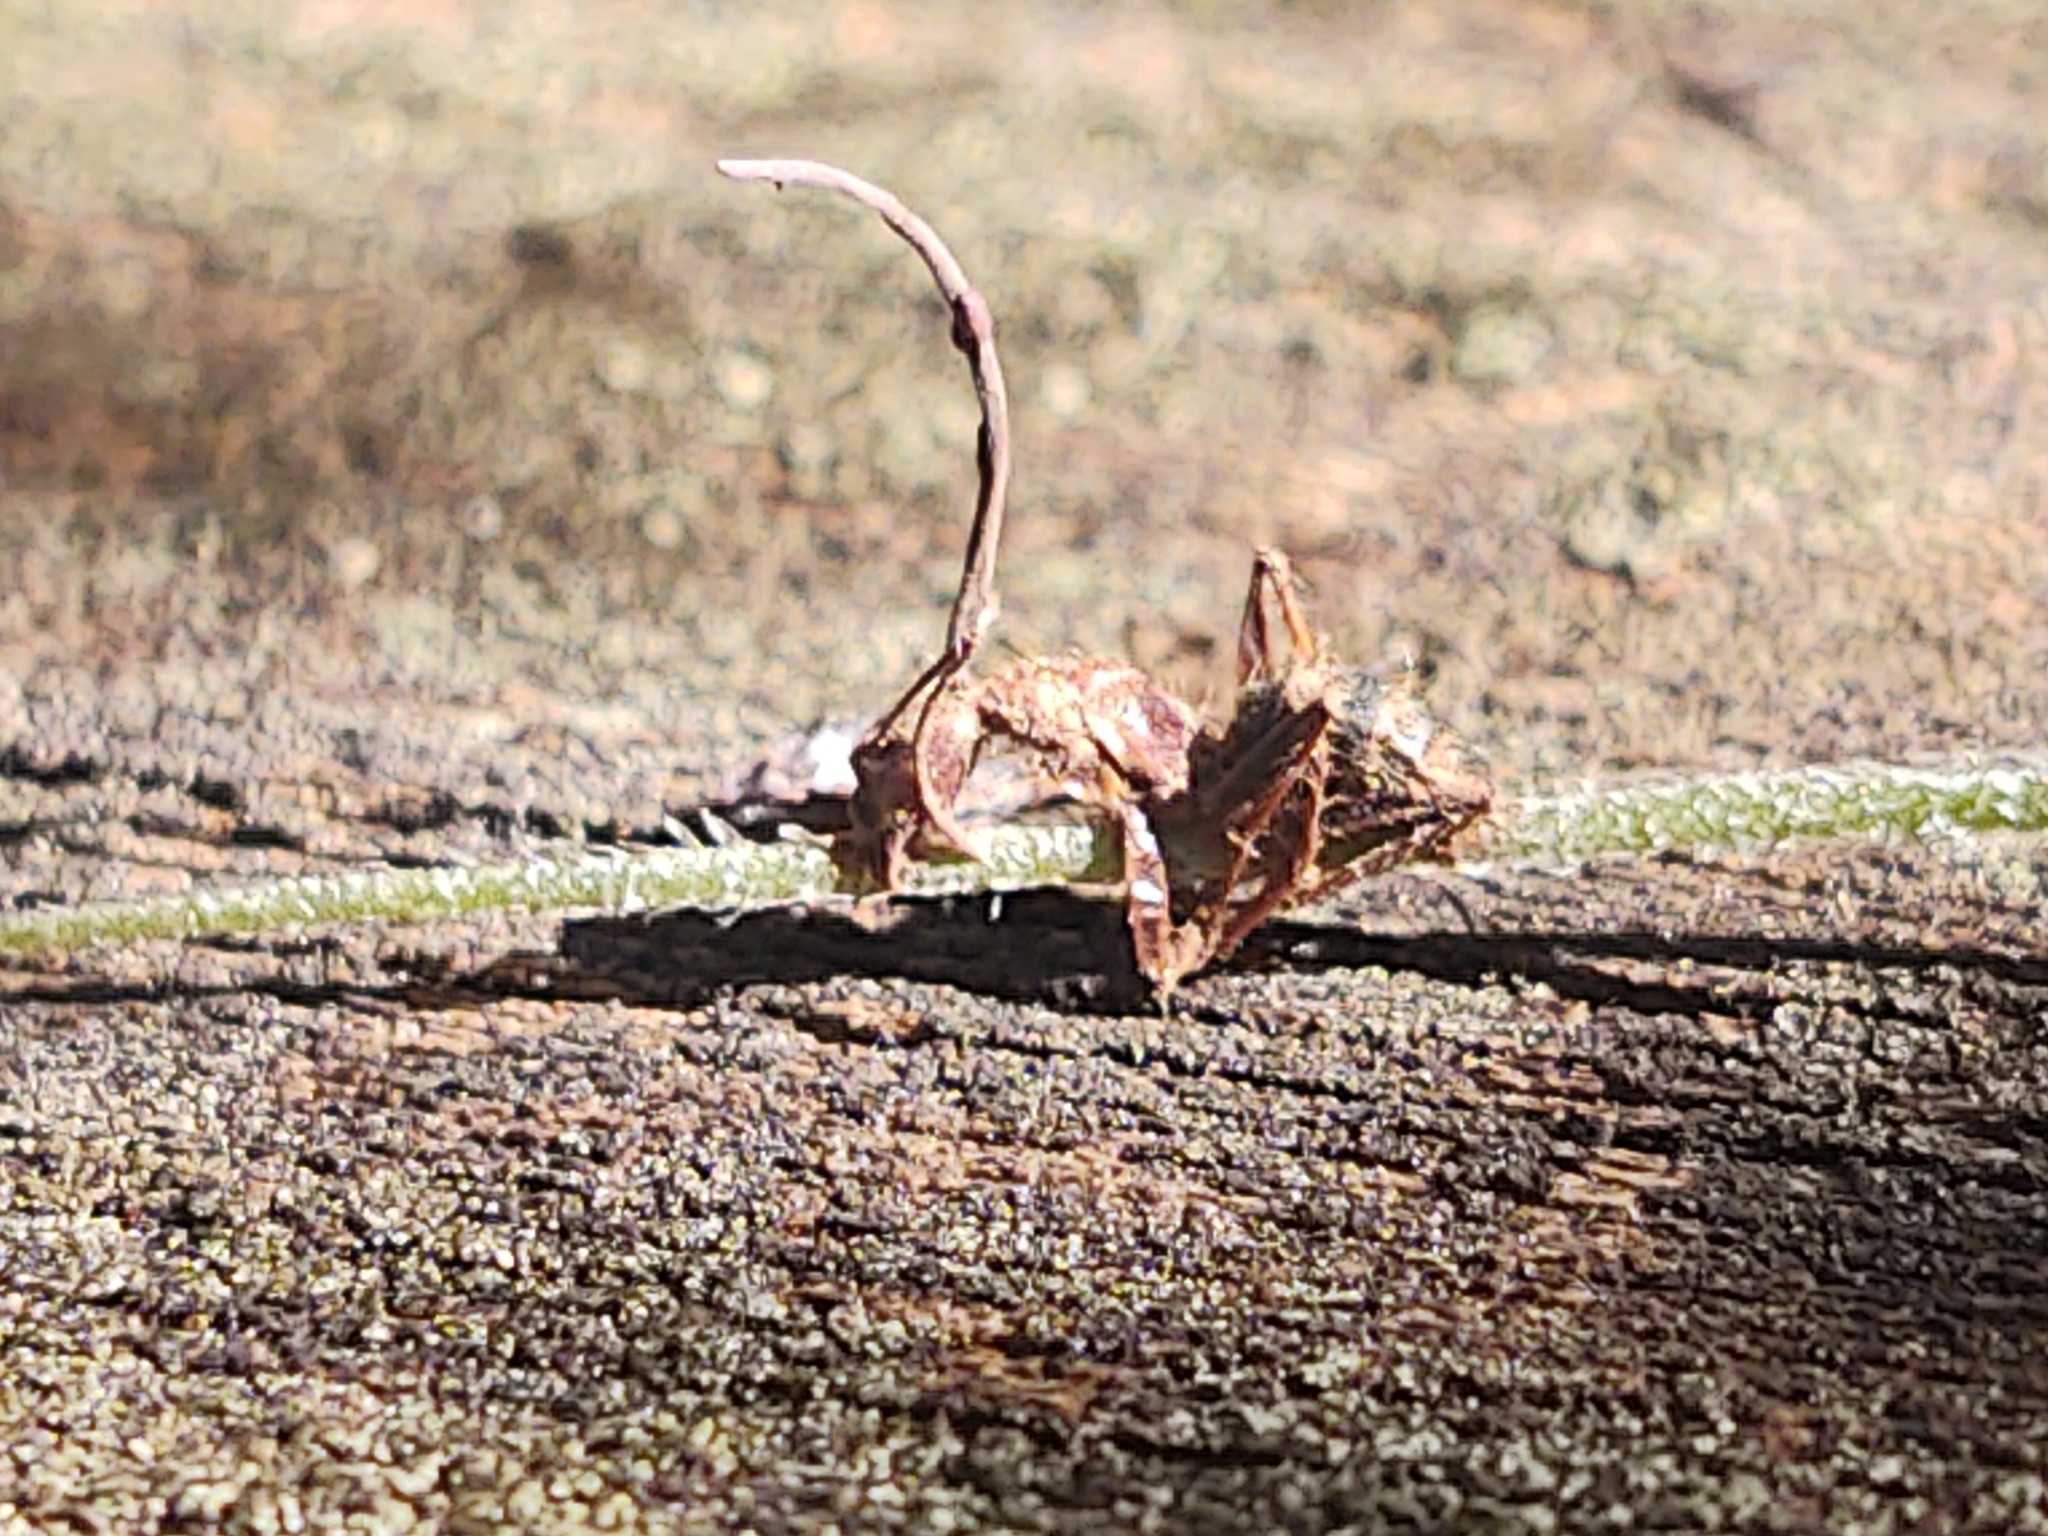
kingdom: Fungi
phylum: Ascomycota
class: Sordariomycetes
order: Hypocreales
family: Ophiocordycipitaceae
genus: Ophiocordyceps
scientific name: Ophiocordyceps camponoti-floridani
